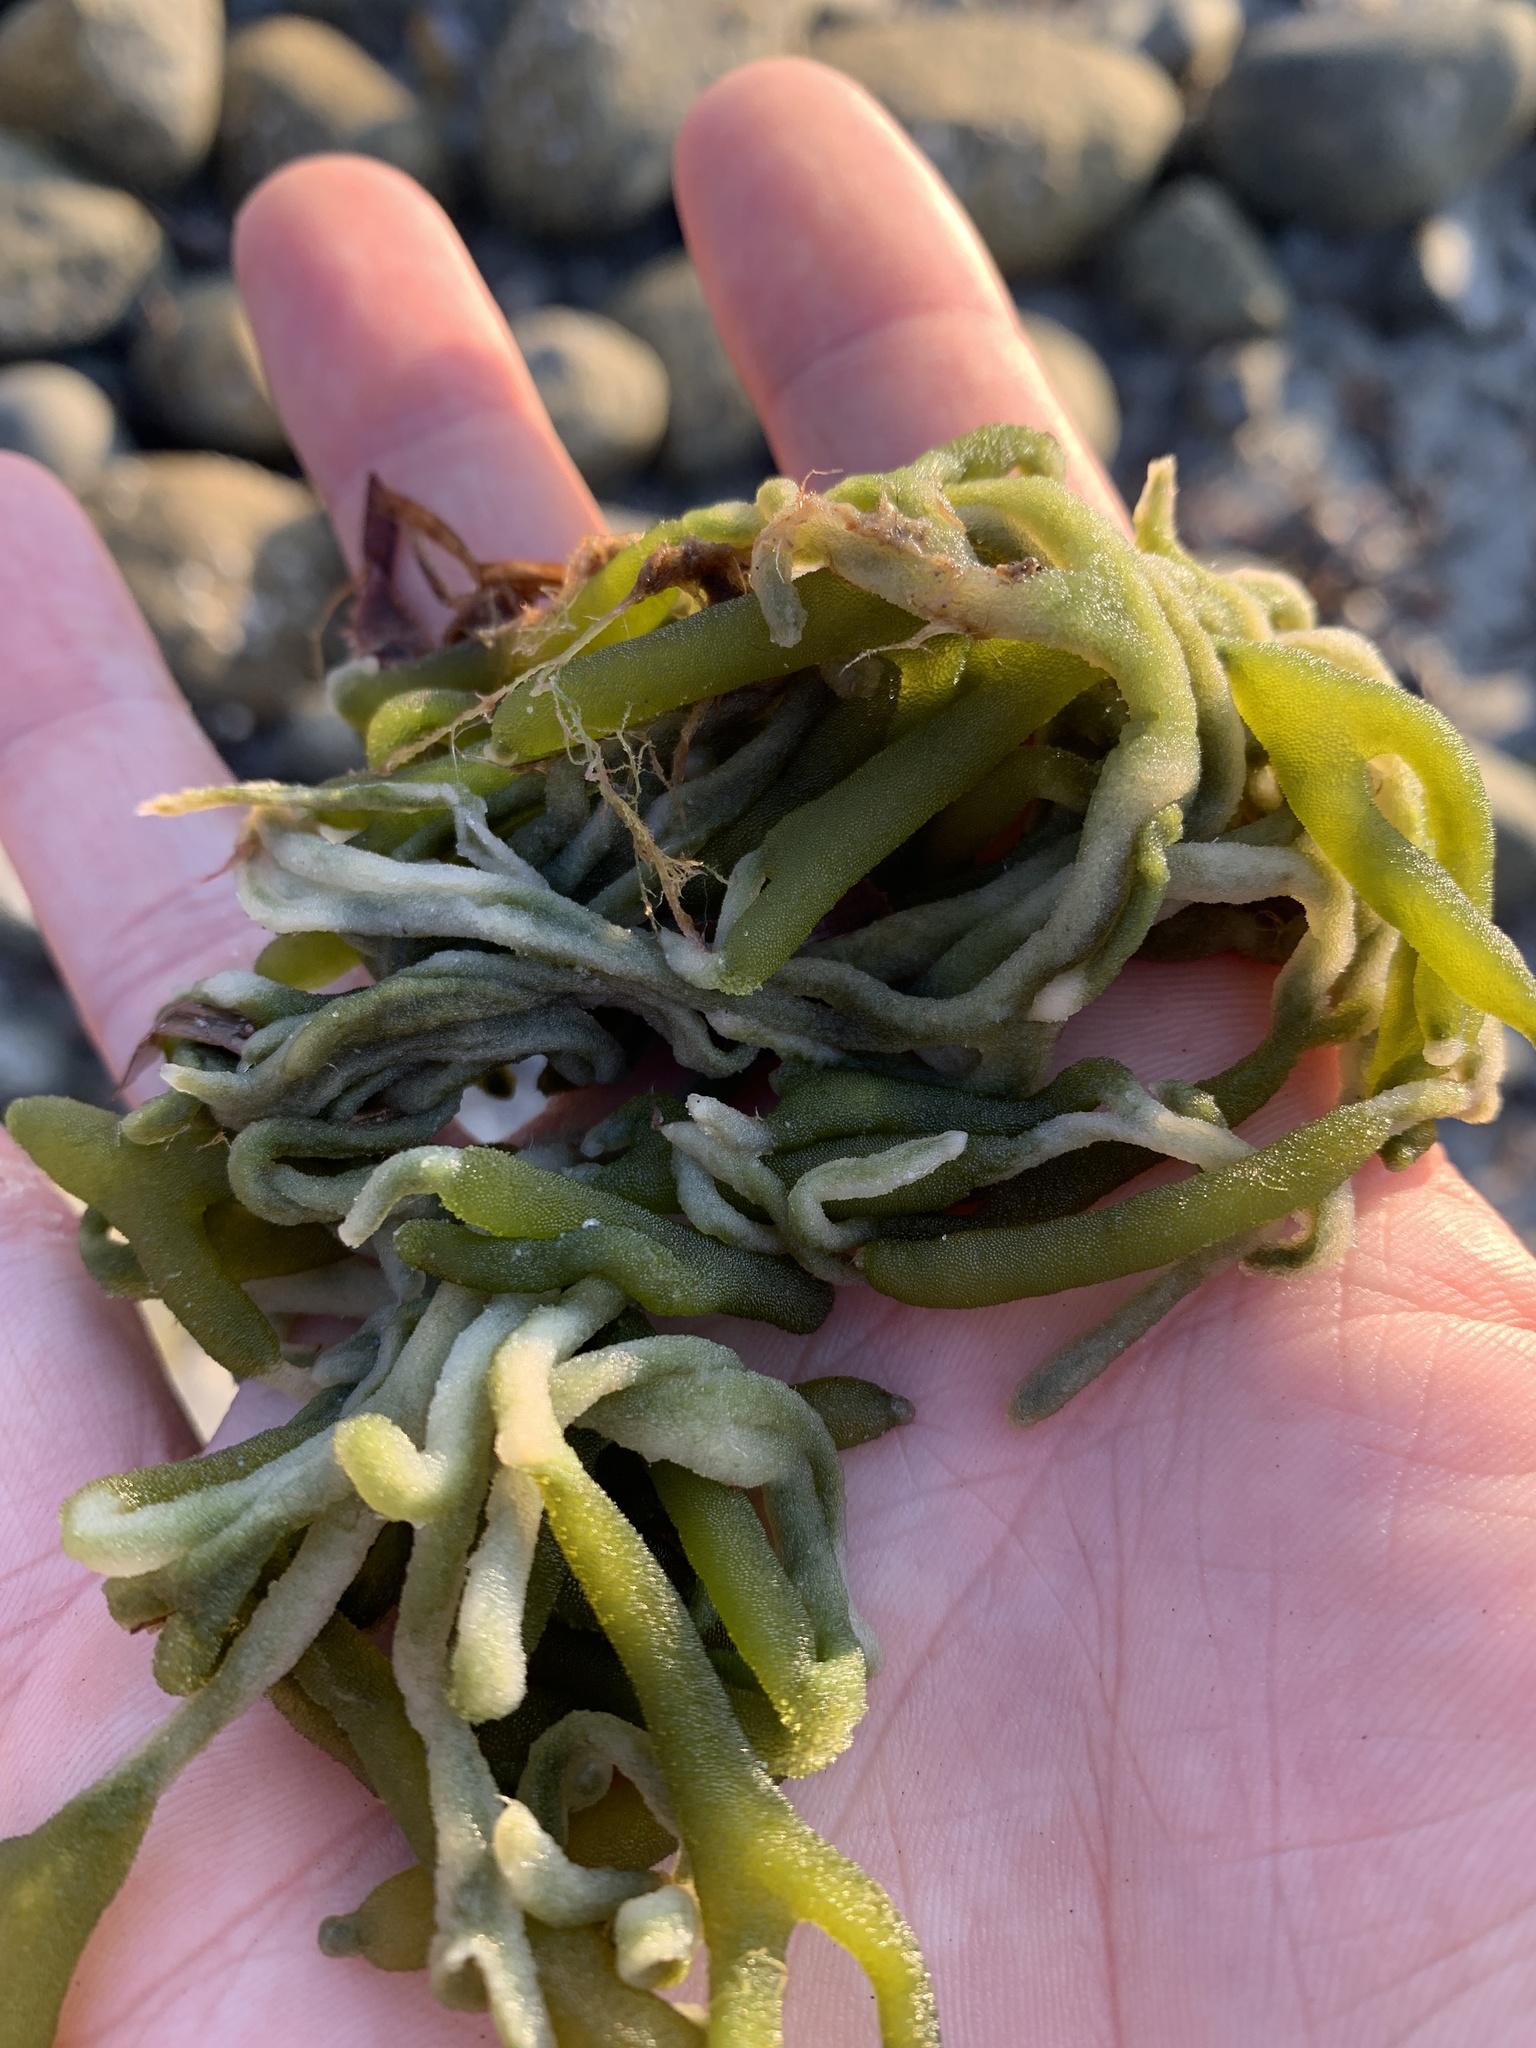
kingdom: Plantae
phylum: Chlorophyta
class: Ulvophyceae
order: Bryopsidales
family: Codiaceae
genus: Codium
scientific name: Codium fragile
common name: Dead man's fingers
